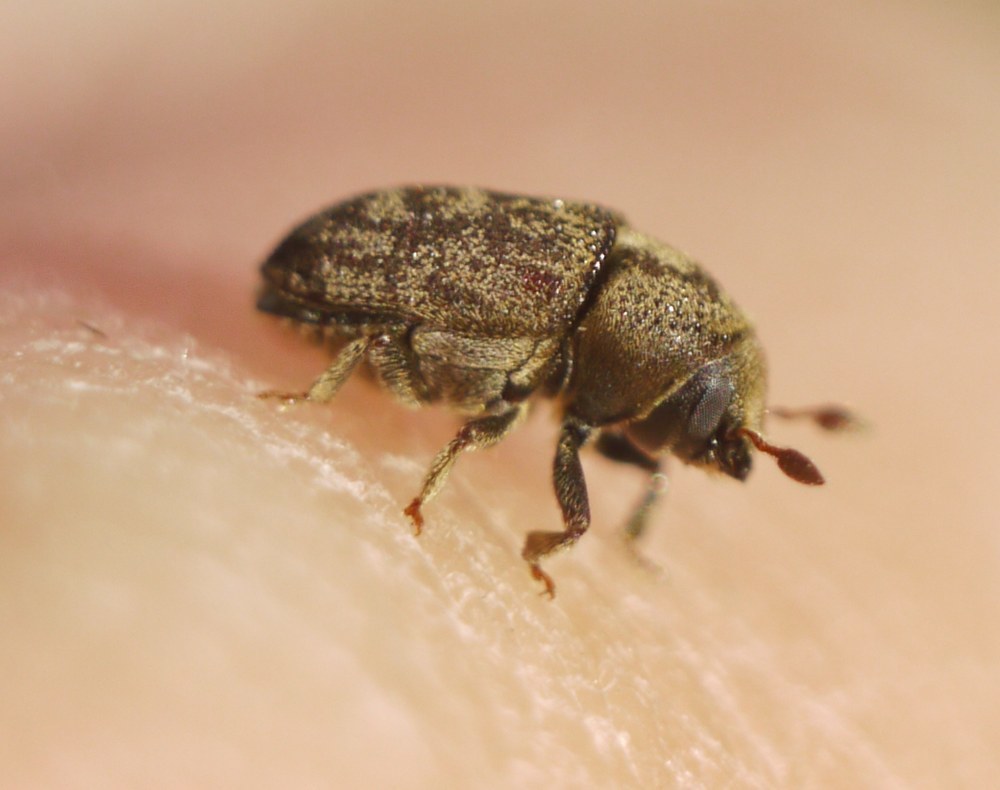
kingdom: Animalia
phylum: Arthropoda
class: Insecta
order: Coleoptera
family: Curculionidae
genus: Hylesinus
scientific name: Hylesinus varius
